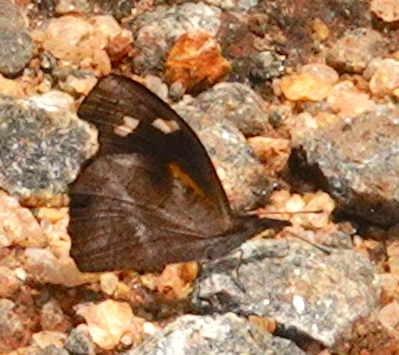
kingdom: Animalia
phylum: Arthropoda
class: Insecta
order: Lepidoptera
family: Nymphalidae
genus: Libythea
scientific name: Libythea myrrha
